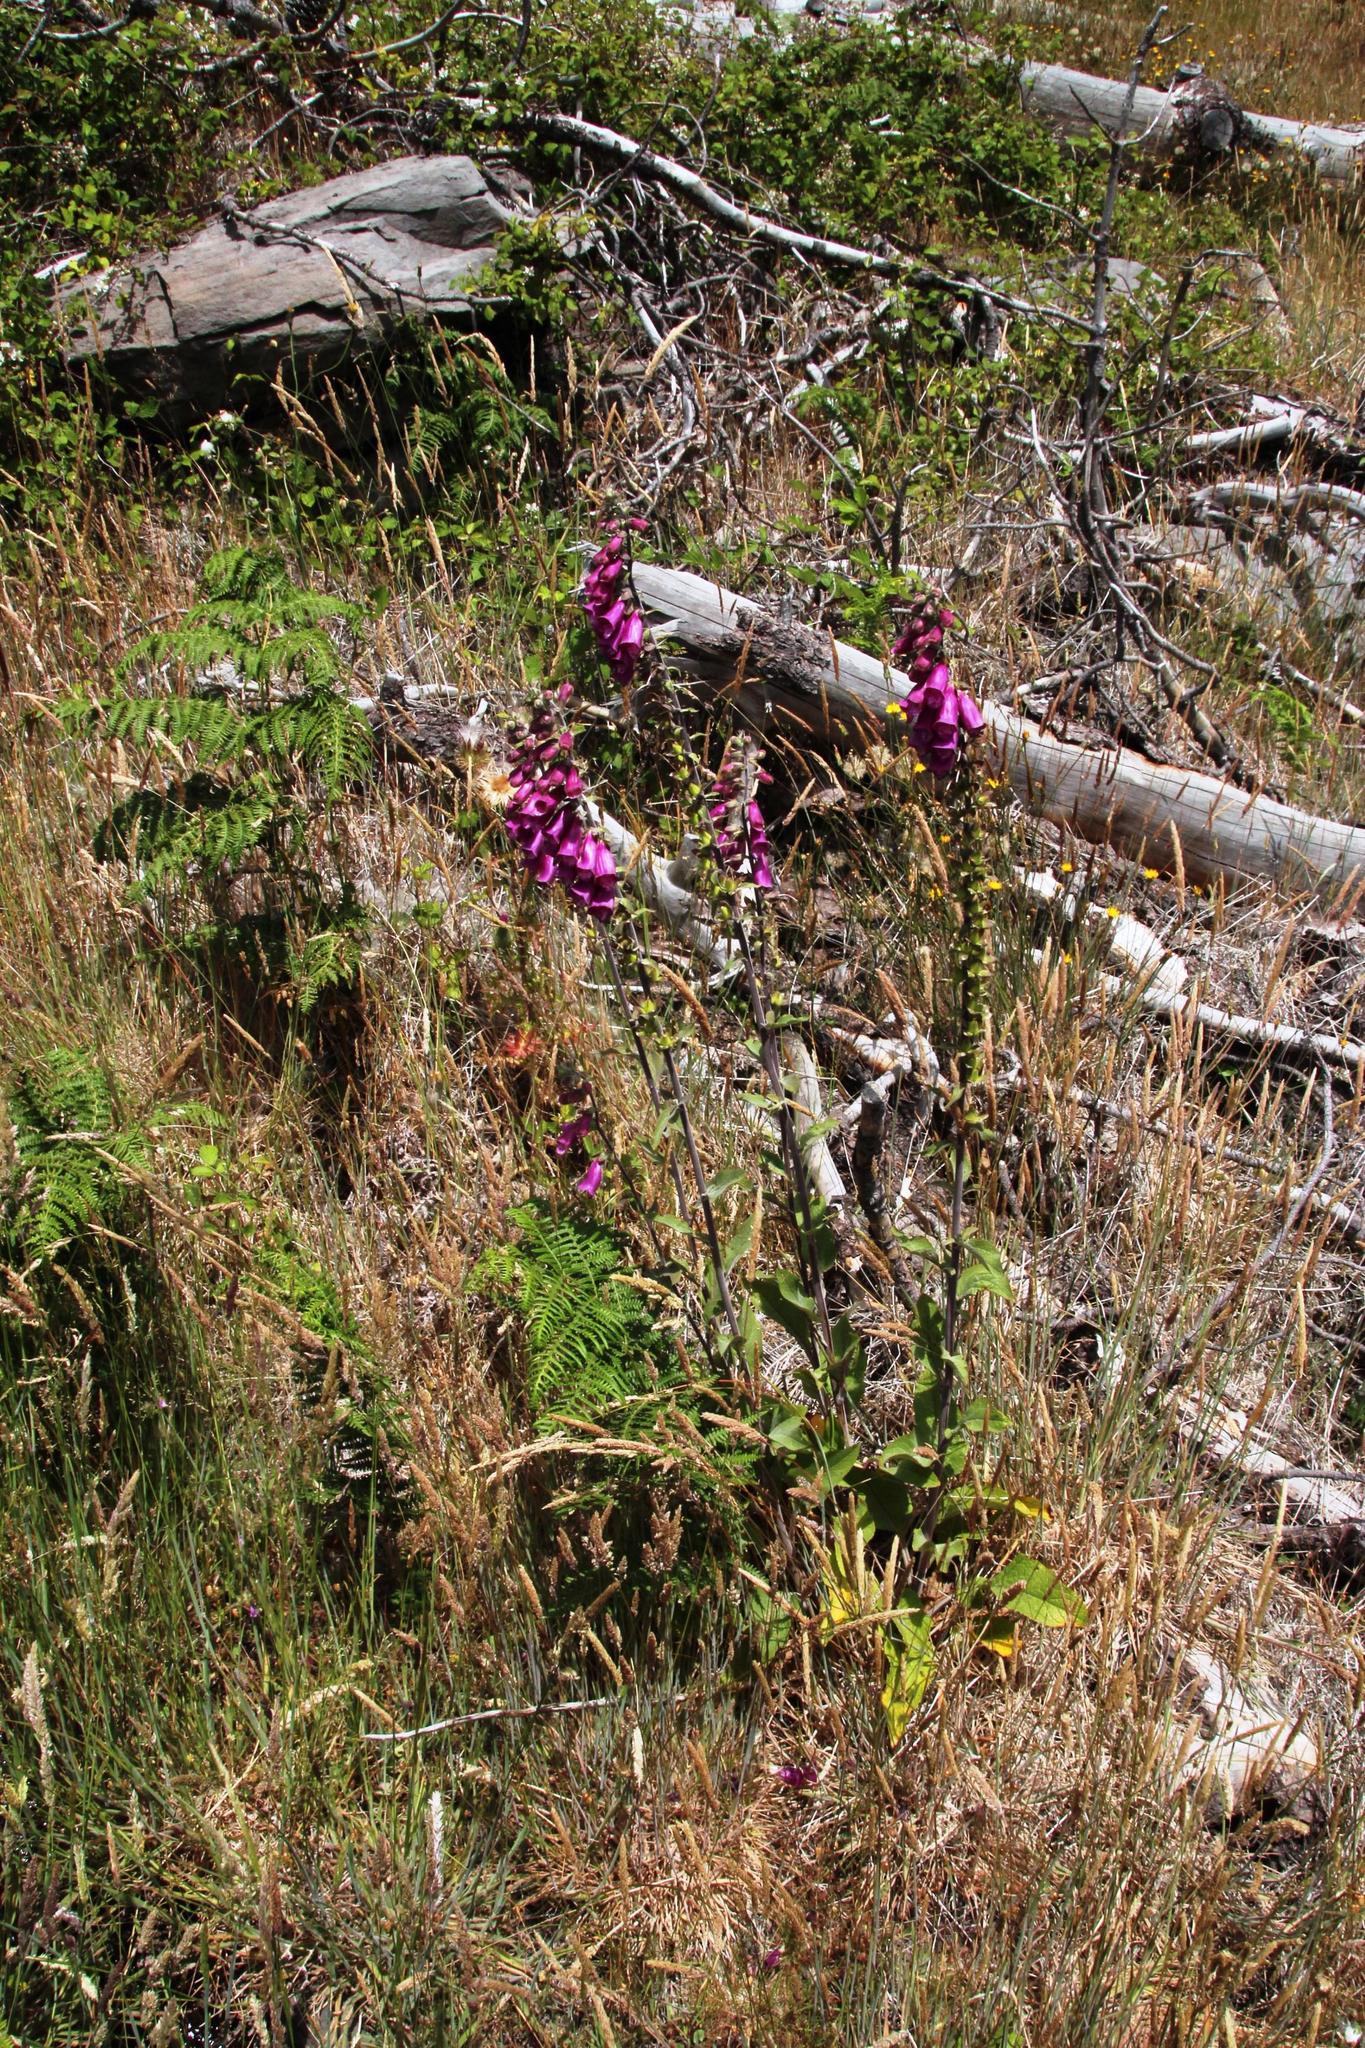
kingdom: Plantae
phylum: Tracheophyta
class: Magnoliopsida
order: Lamiales
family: Plantaginaceae
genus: Digitalis
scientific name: Digitalis purpurea
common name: Foxglove
